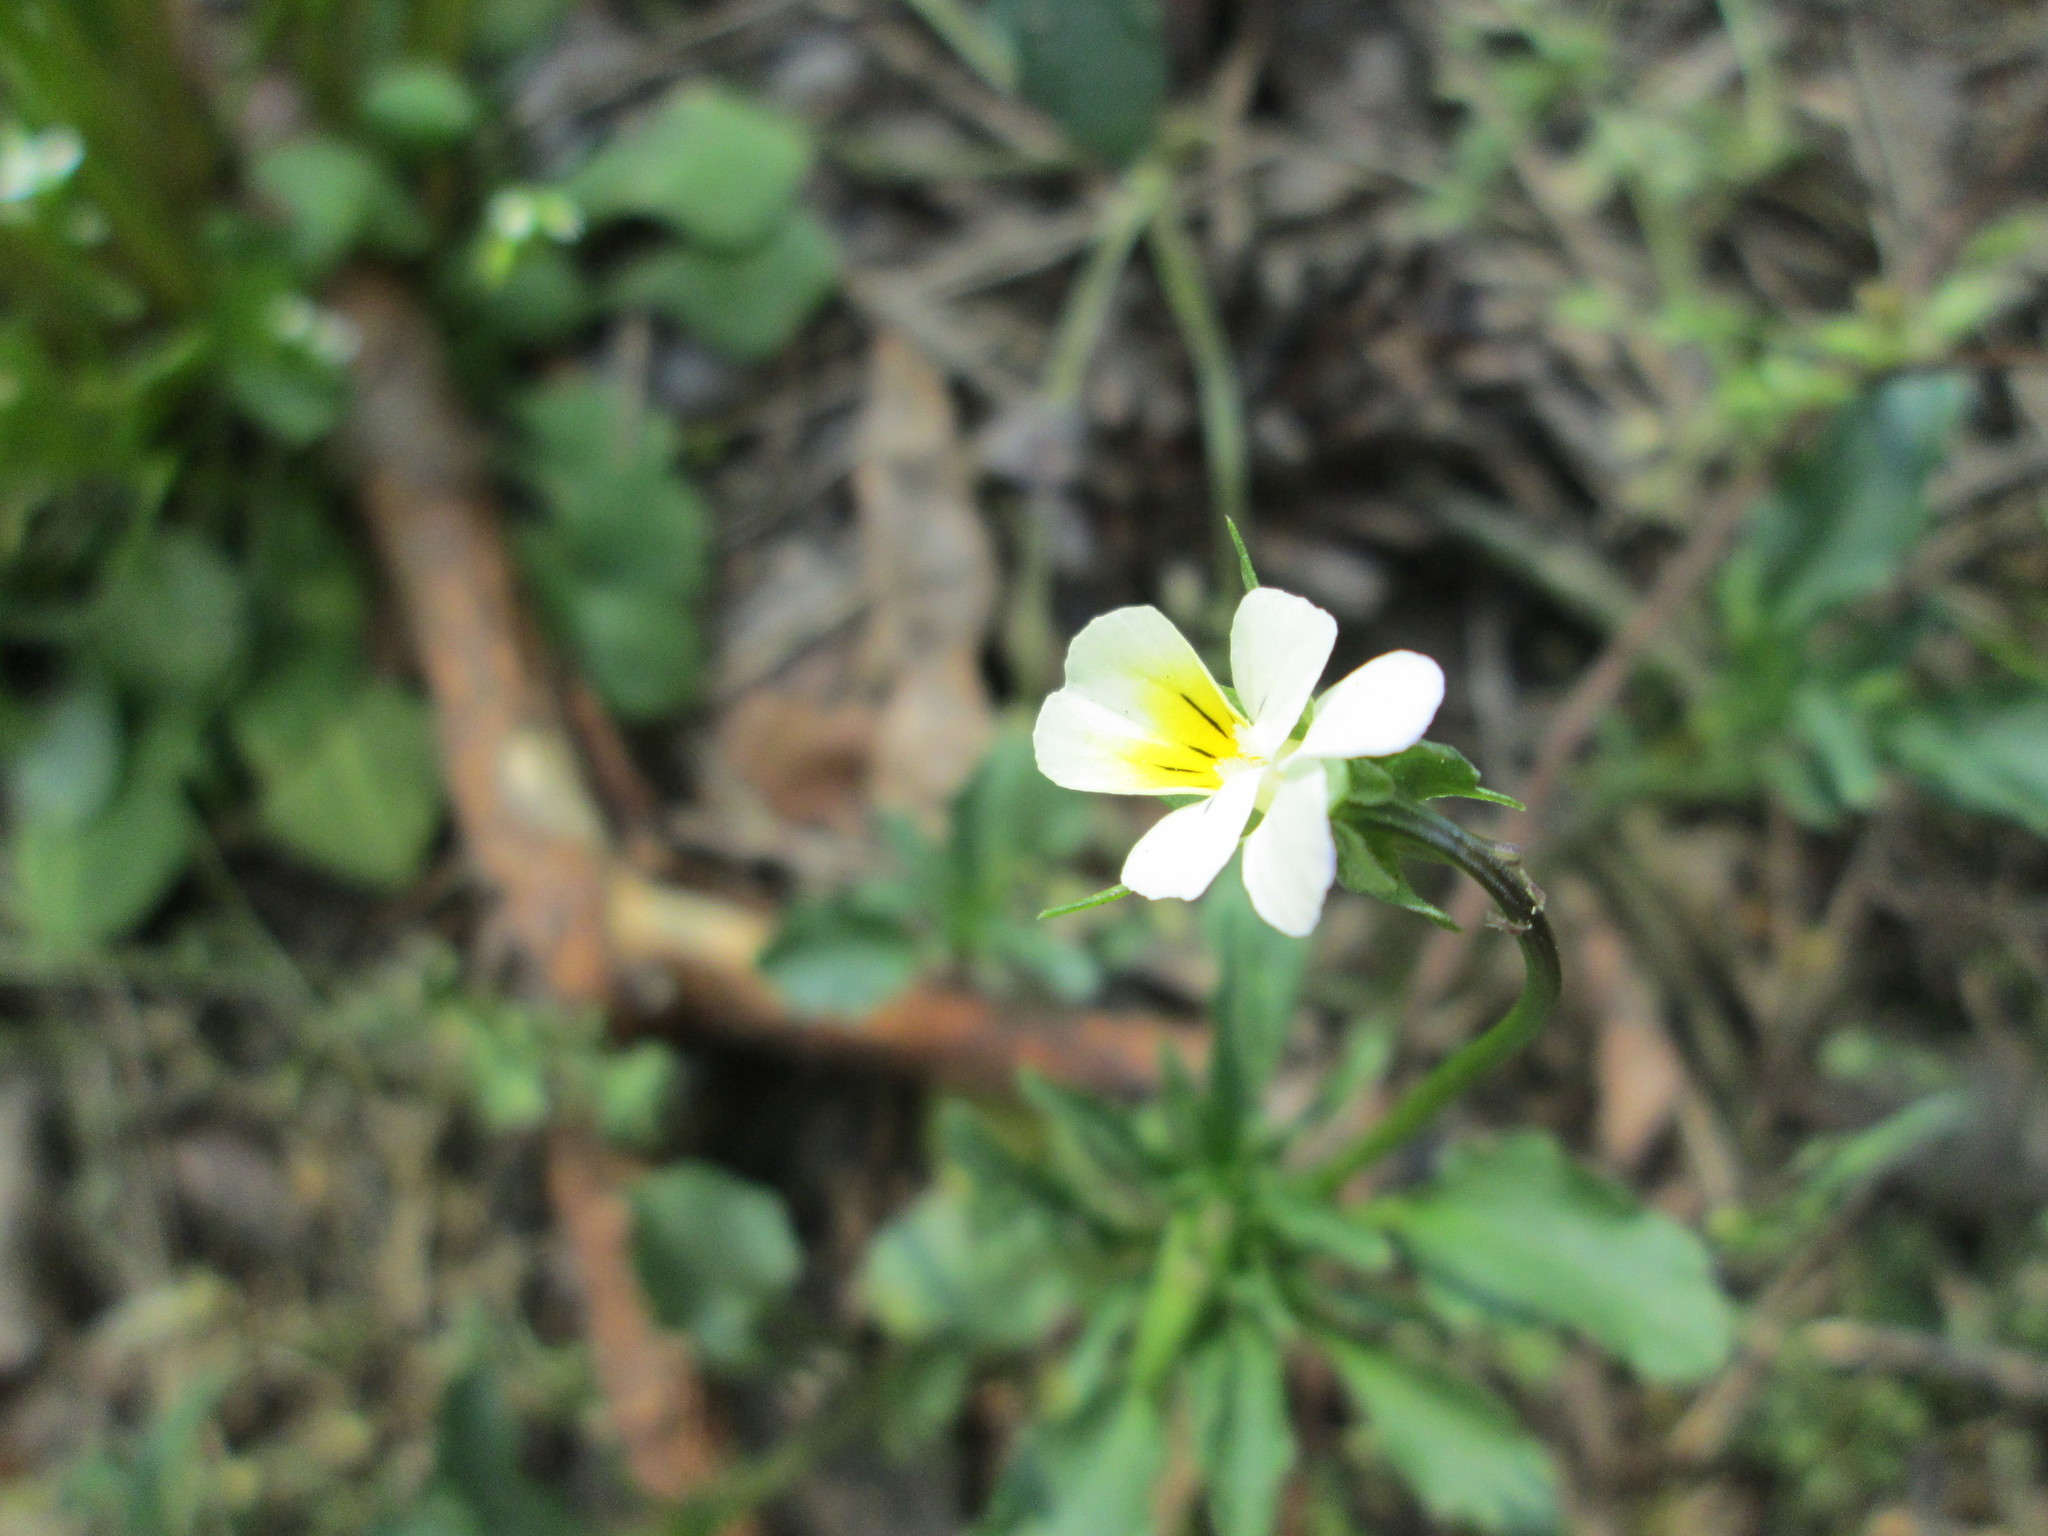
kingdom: Plantae
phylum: Tracheophyta
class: Magnoliopsida
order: Malpighiales
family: Violaceae
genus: Viola
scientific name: Viola arvensis
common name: Field pansy
